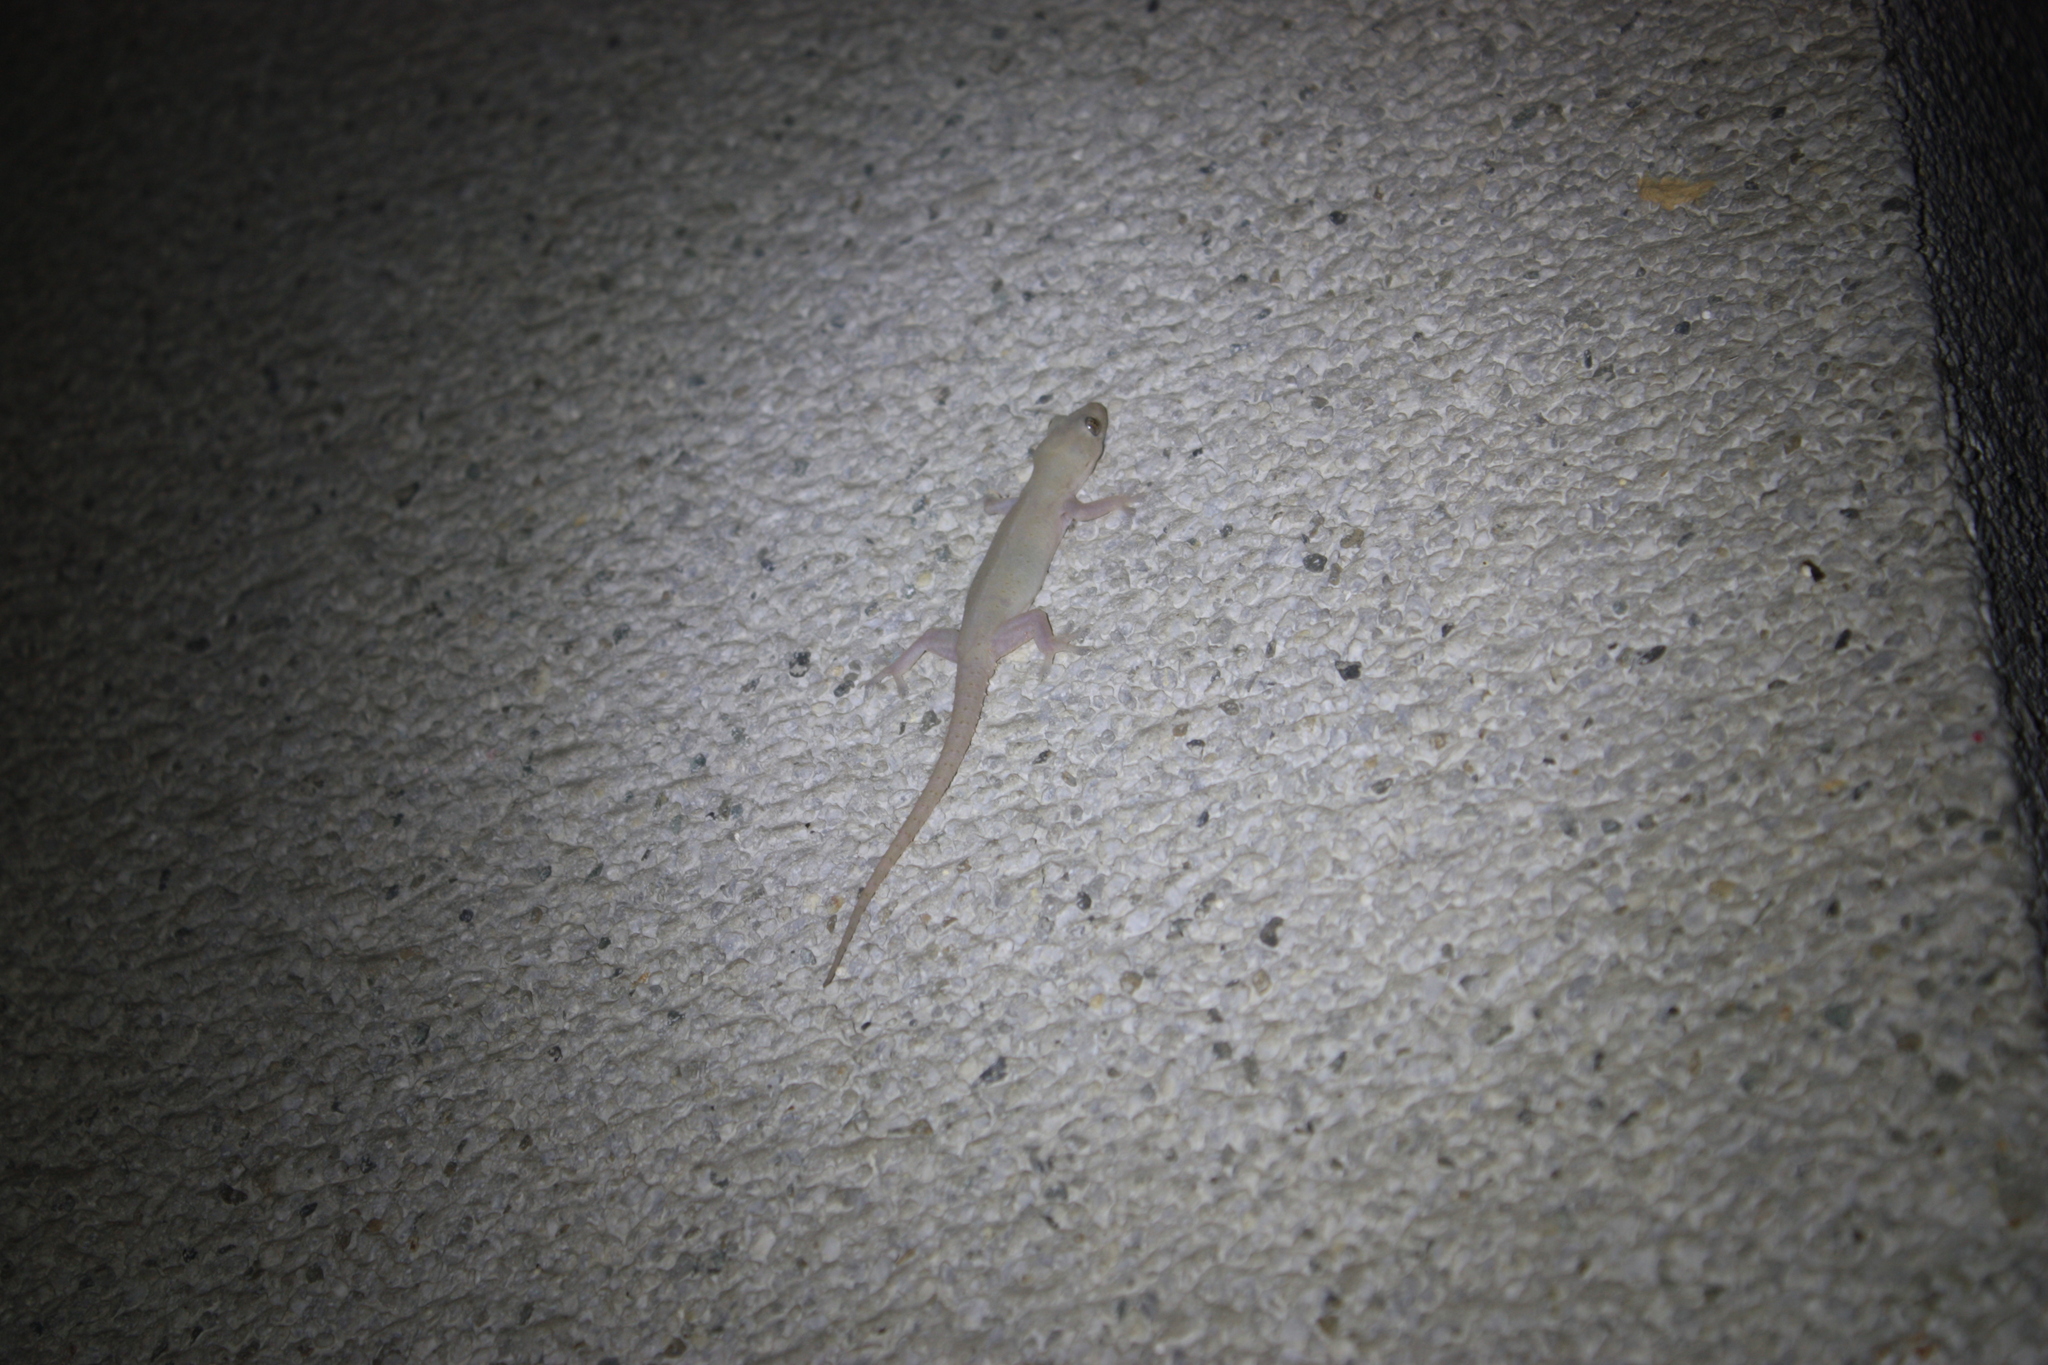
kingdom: Animalia
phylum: Chordata
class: Squamata
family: Gekkonidae
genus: Hemidactylus
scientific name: Hemidactylus frenatus
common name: Common house gecko
